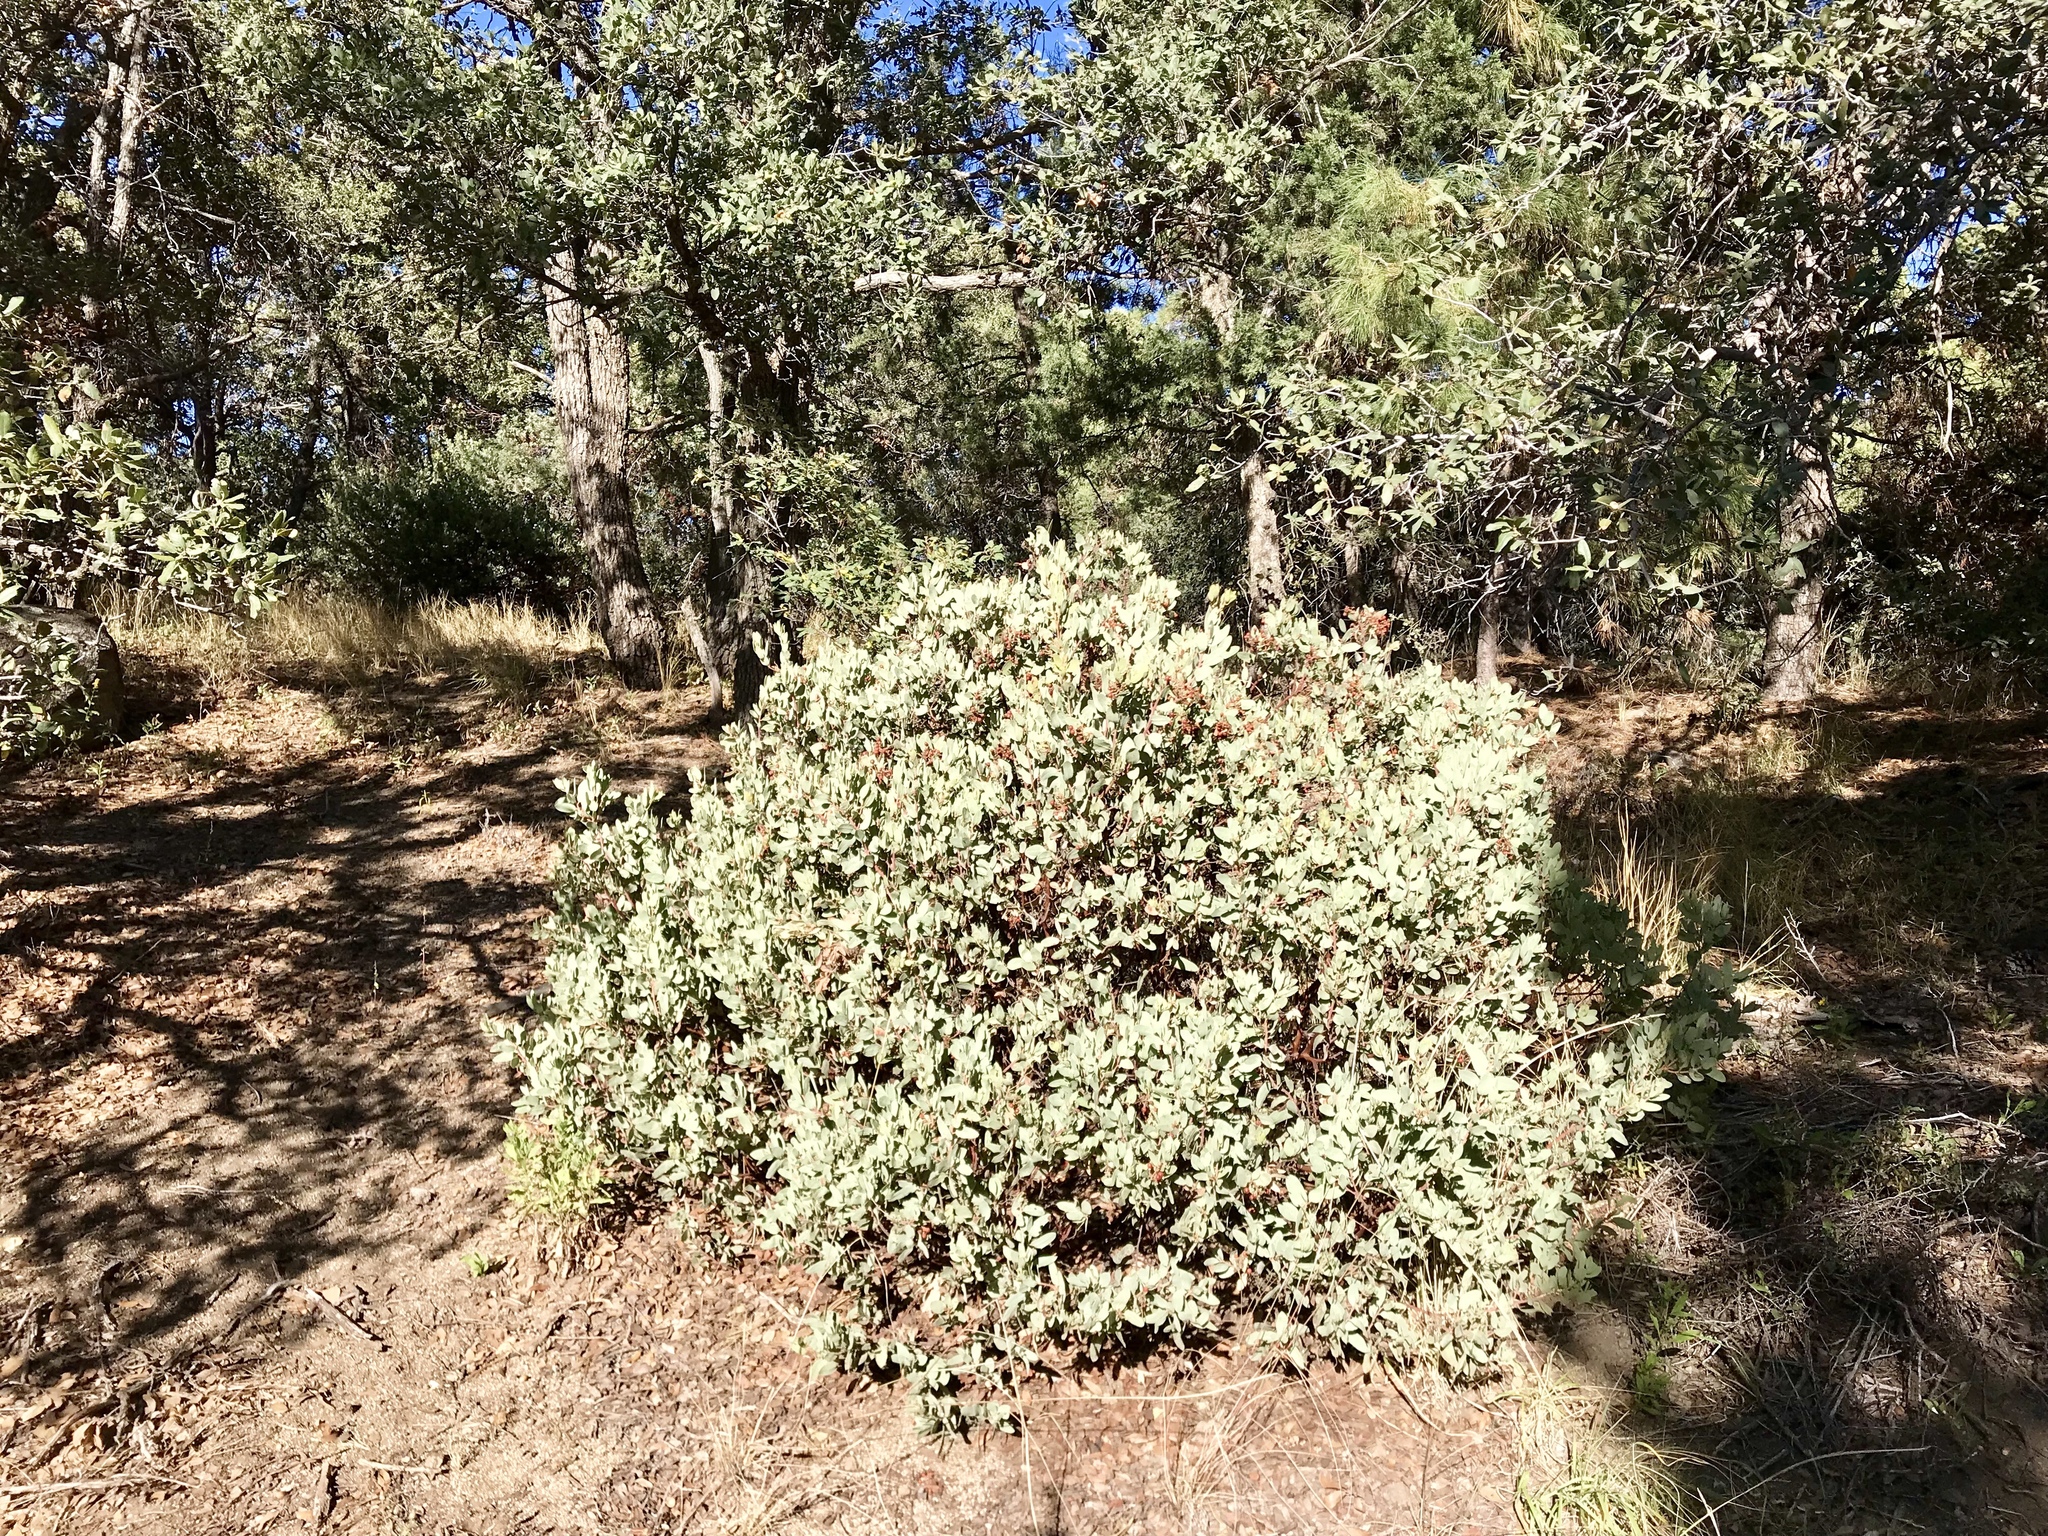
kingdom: Plantae
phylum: Tracheophyta
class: Magnoliopsida
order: Ericales
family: Ericaceae
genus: Arctostaphylos
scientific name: Arctostaphylos pringlei
